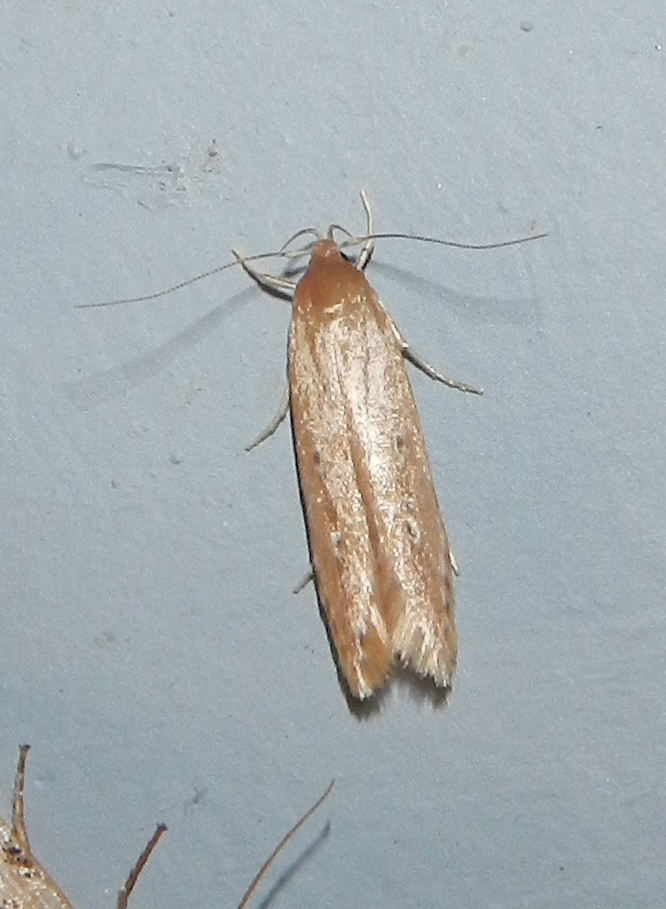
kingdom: Animalia
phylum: Arthropoda
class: Insecta
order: Lepidoptera
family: Cosmopterigidae
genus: Limnaecia
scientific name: Limnaecia phragmitella
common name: Bulrush cosmet
